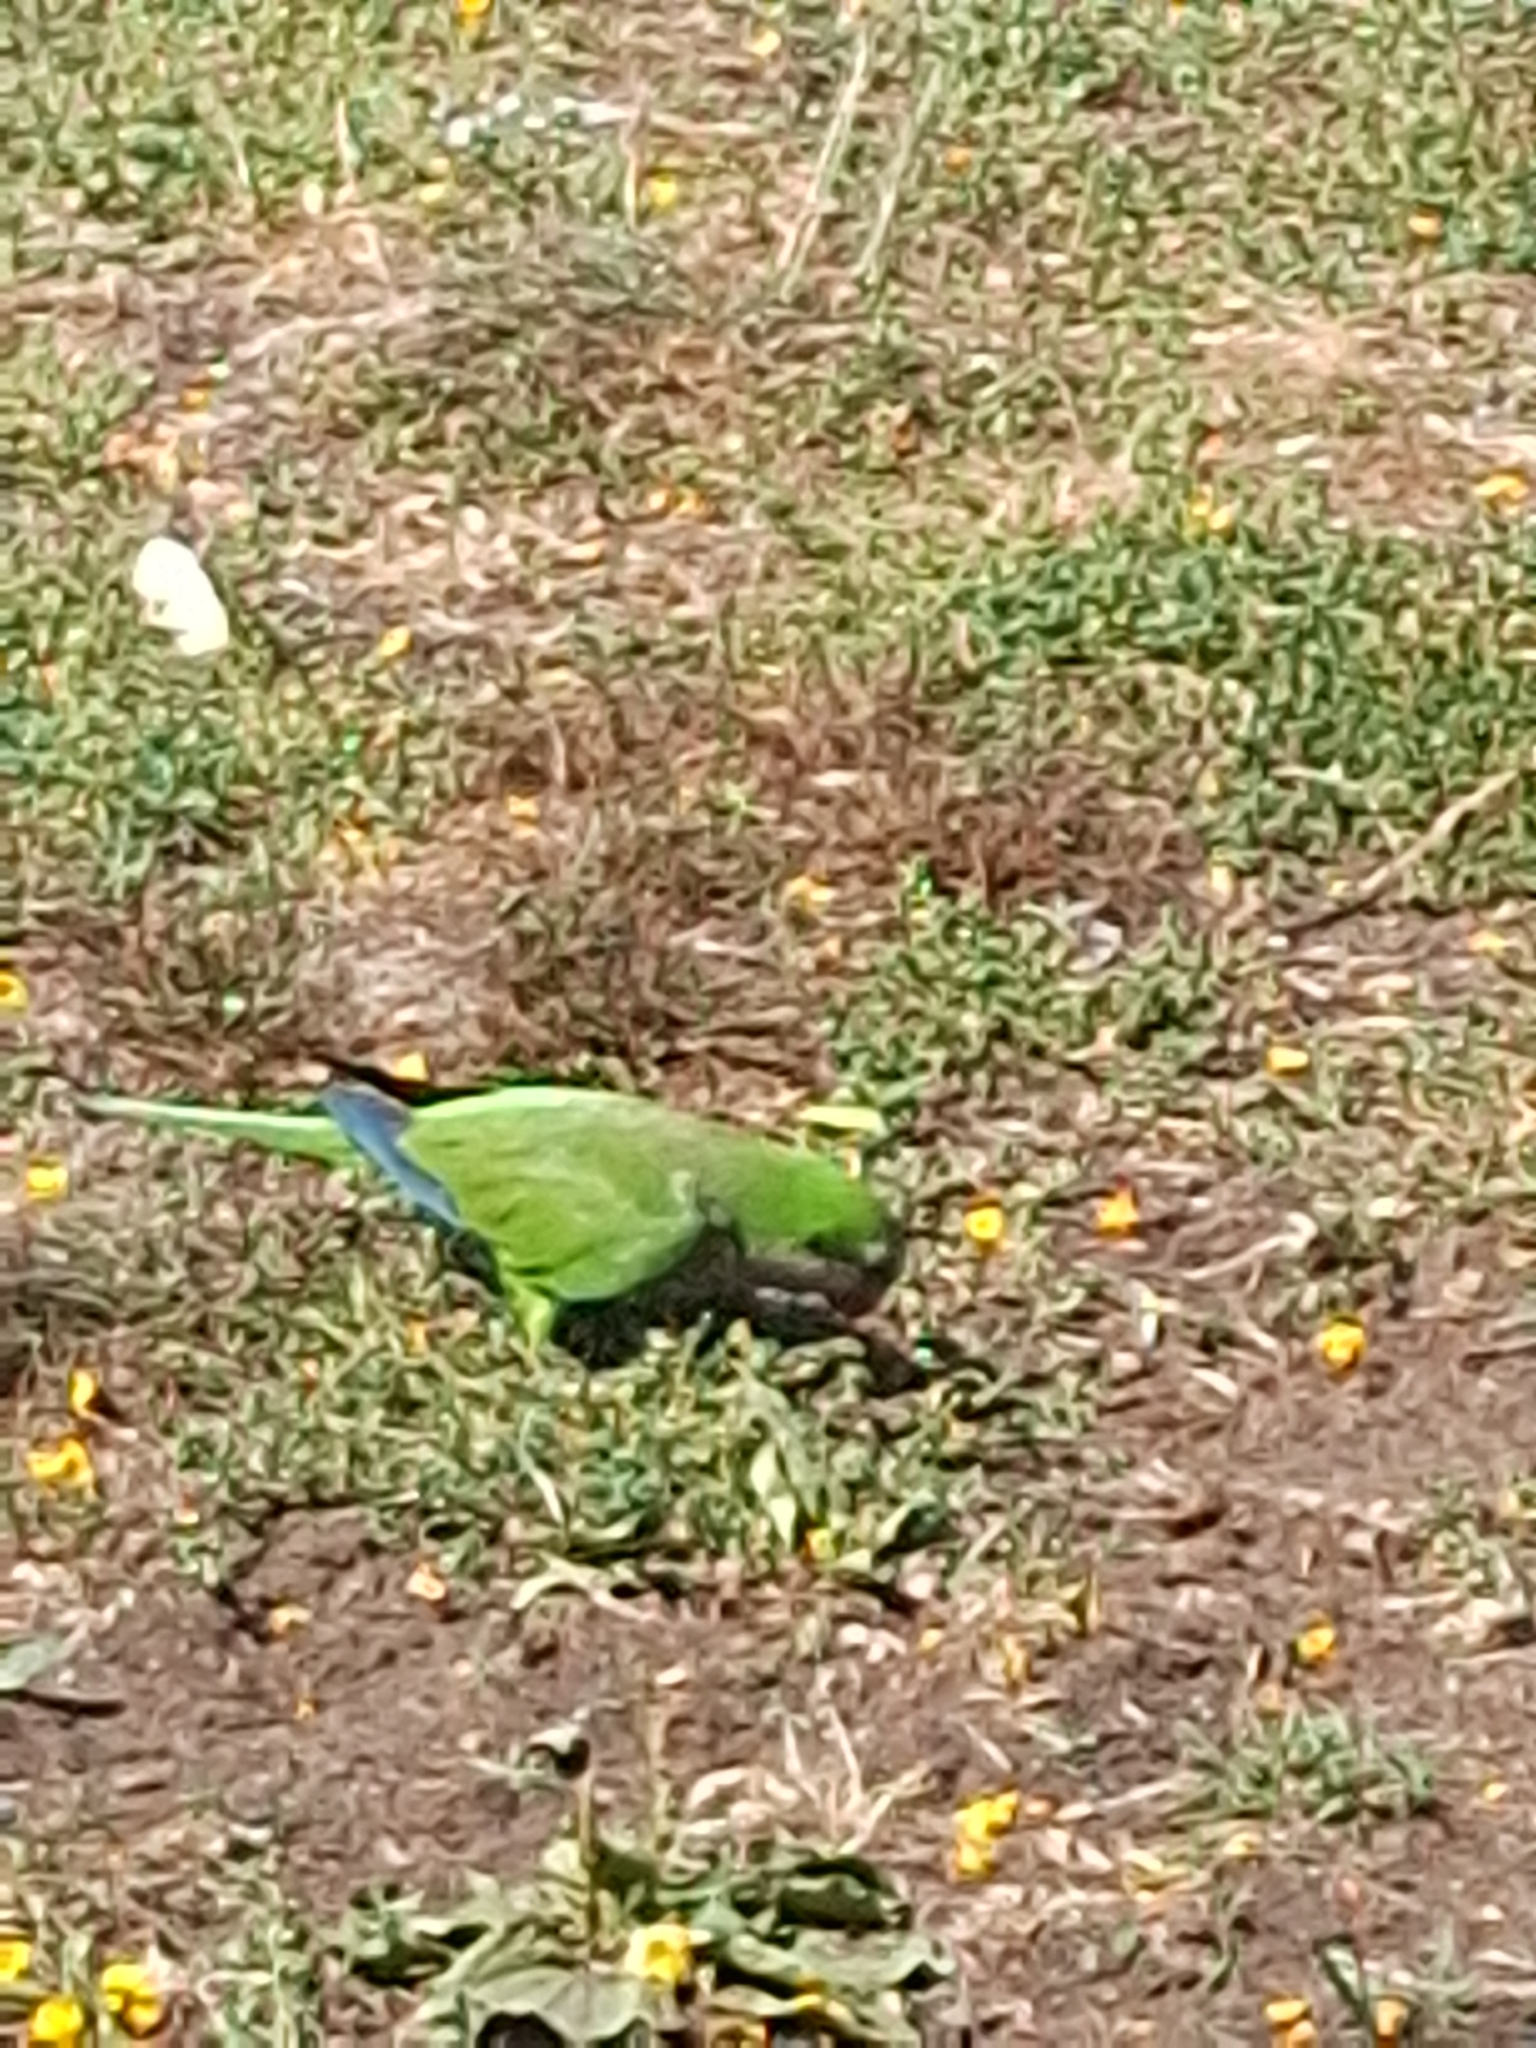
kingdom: Animalia
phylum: Chordata
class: Aves
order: Psittaciformes
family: Psittacidae
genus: Myiopsitta
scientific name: Myiopsitta monachus
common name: Monk parakeet
